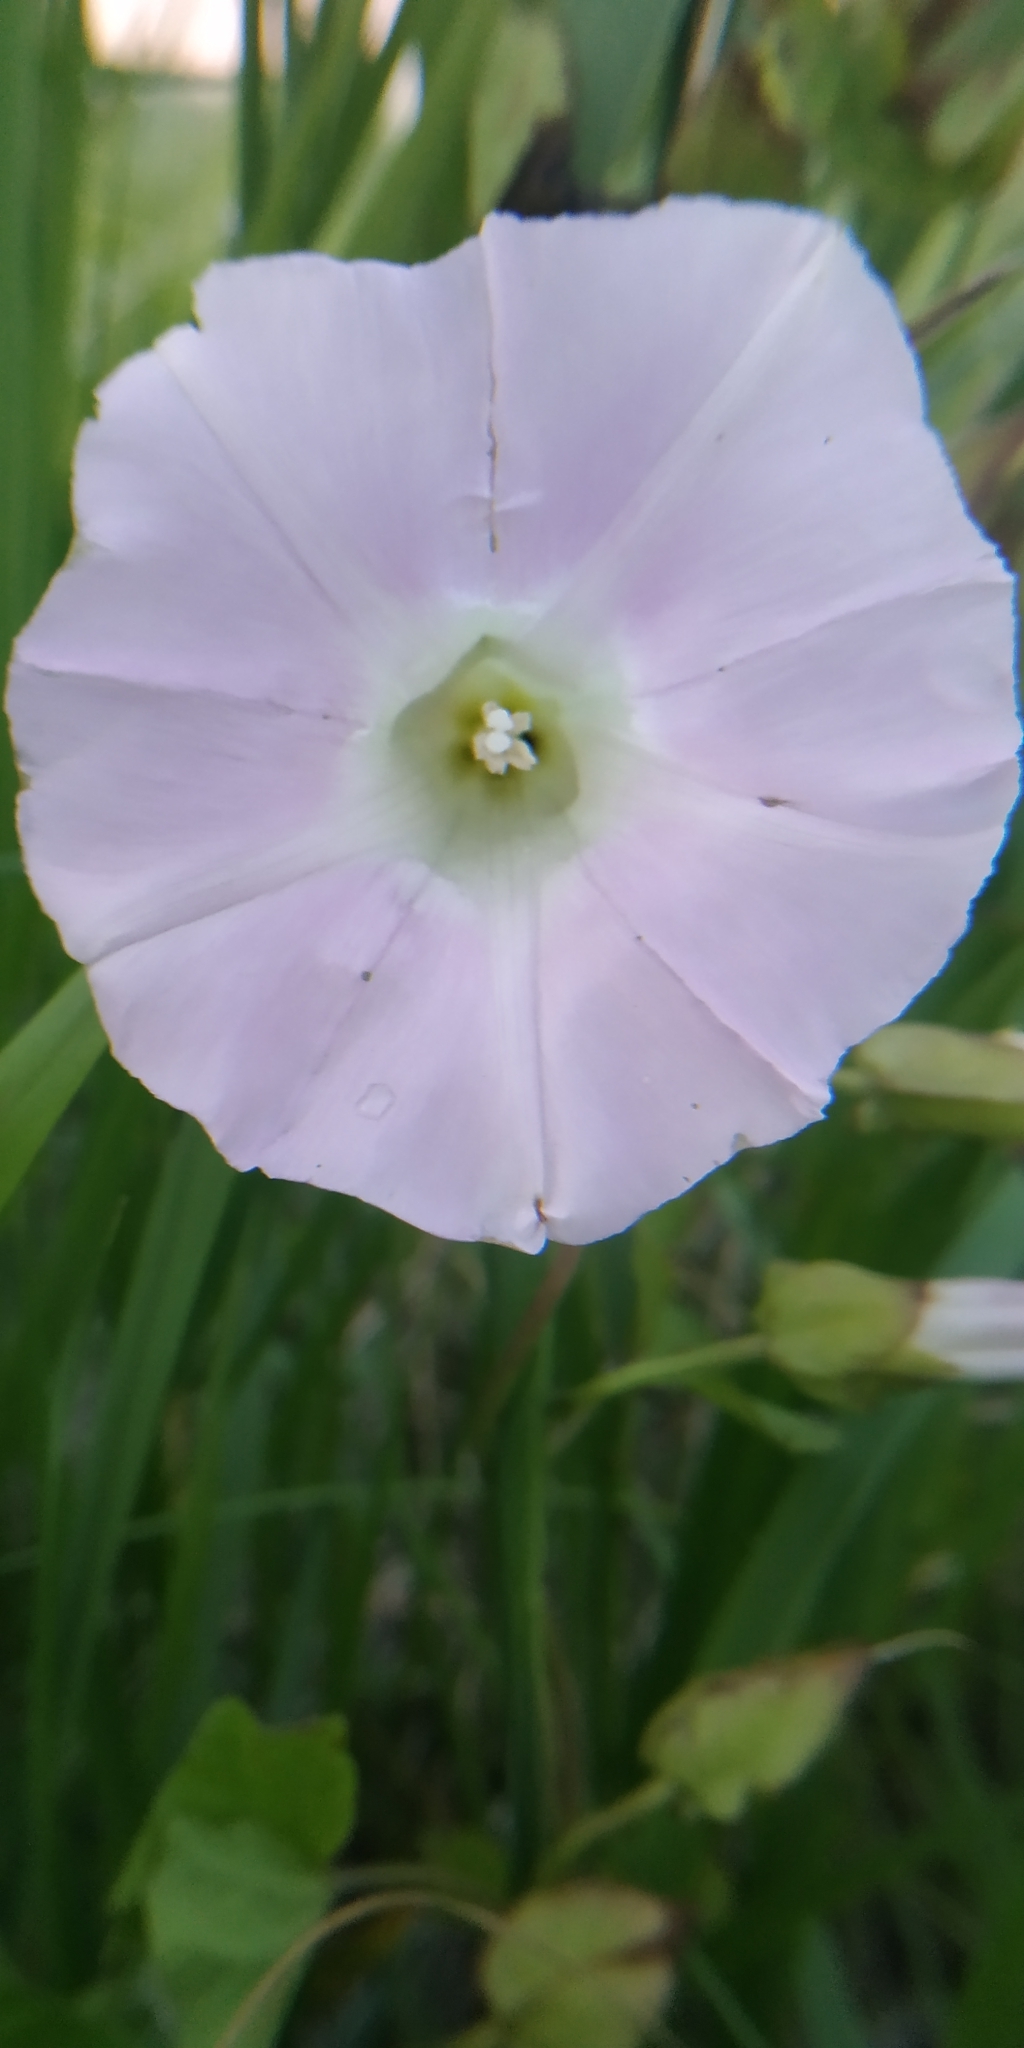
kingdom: Plantae
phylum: Tracheophyta
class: Magnoliopsida
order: Solanales
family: Convolvulaceae
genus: Calystegia
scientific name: Calystegia sepium
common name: Hedge bindweed
